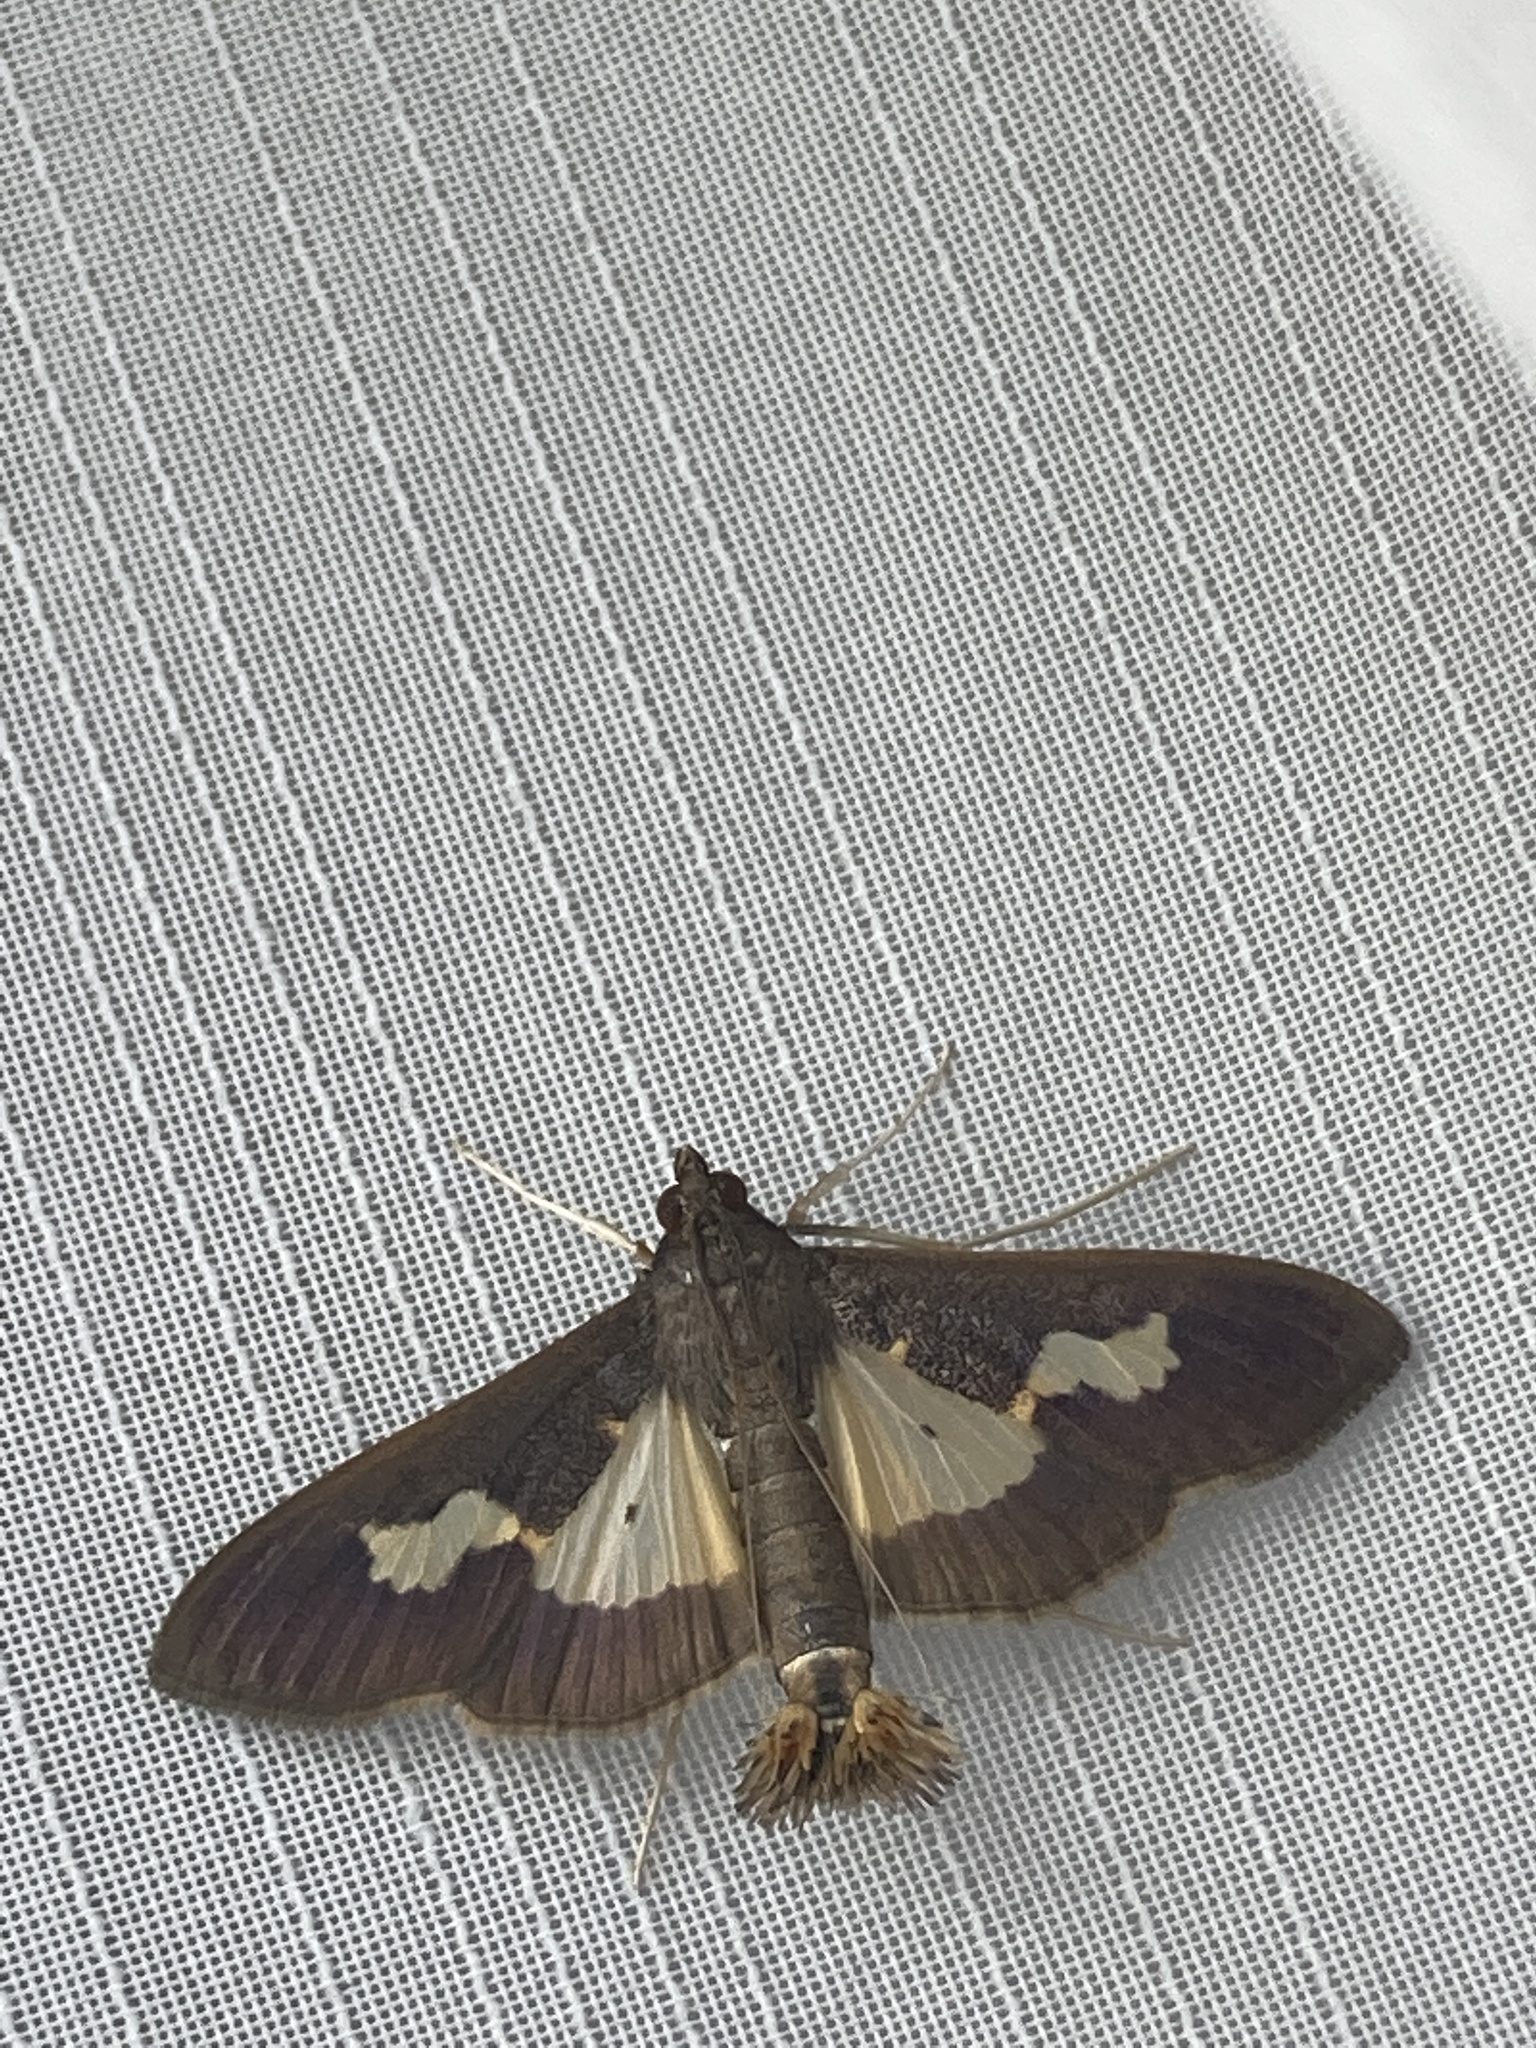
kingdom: Animalia
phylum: Arthropoda
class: Insecta
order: Lepidoptera
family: Crambidae
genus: Cryptographis
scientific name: Cryptographis nitidalis
